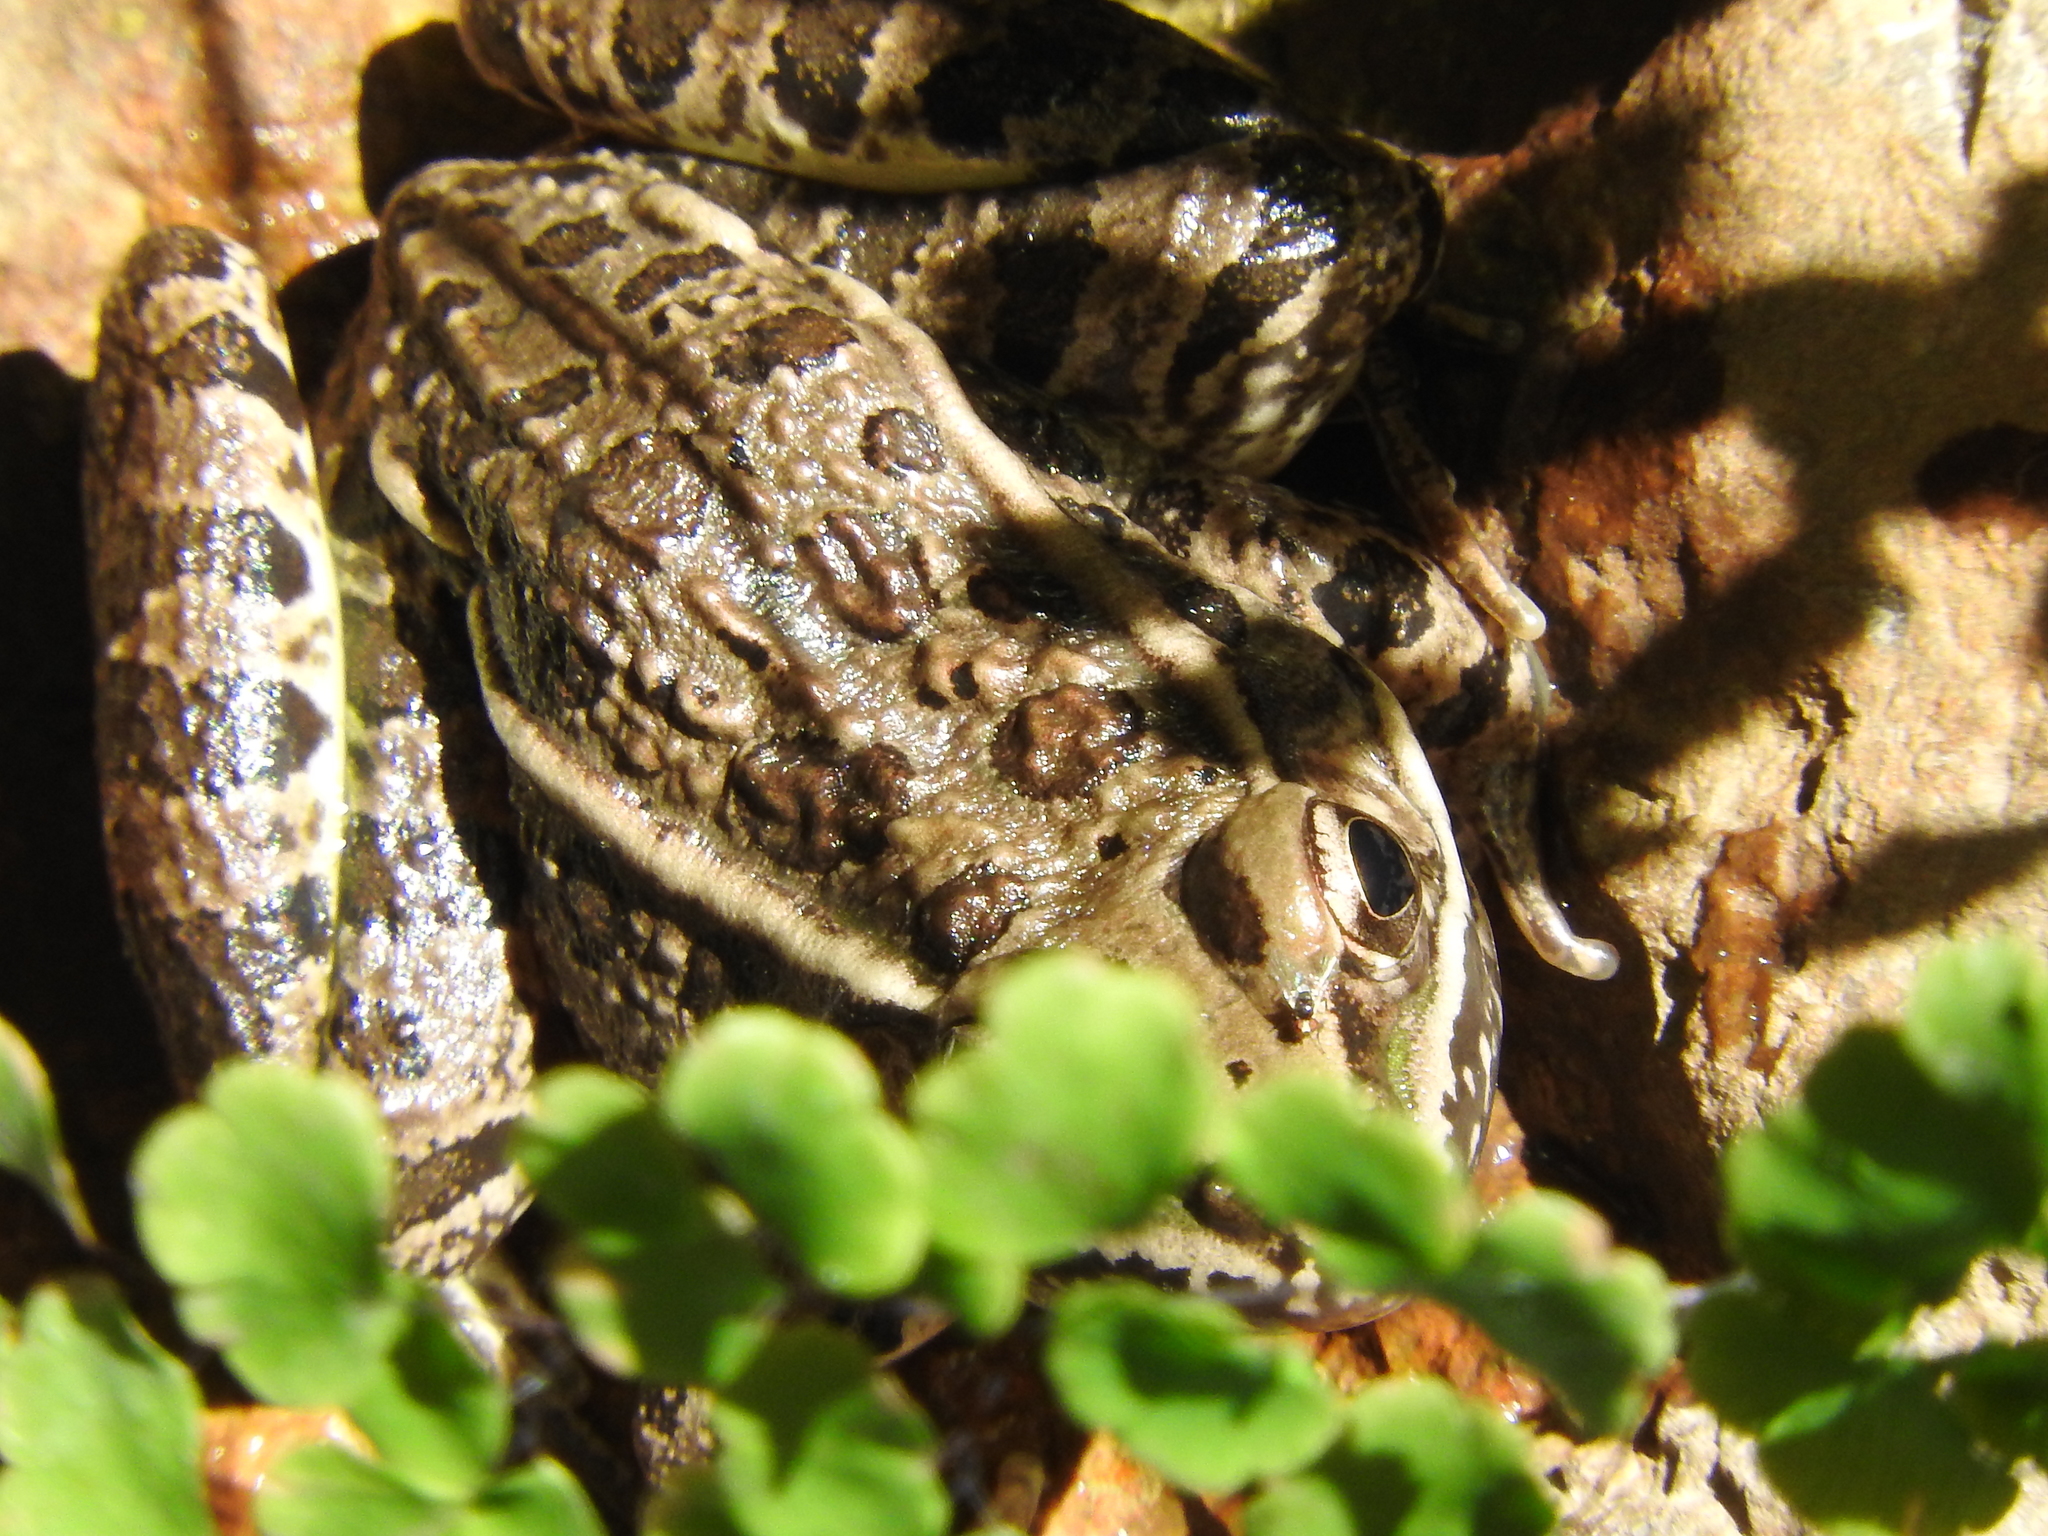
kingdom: Animalia
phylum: Chordata
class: Amphibia
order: Anura
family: Ranidae
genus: Lithobates
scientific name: Lithobates neovolcanicus
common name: Transverse volcanic leopard frog
